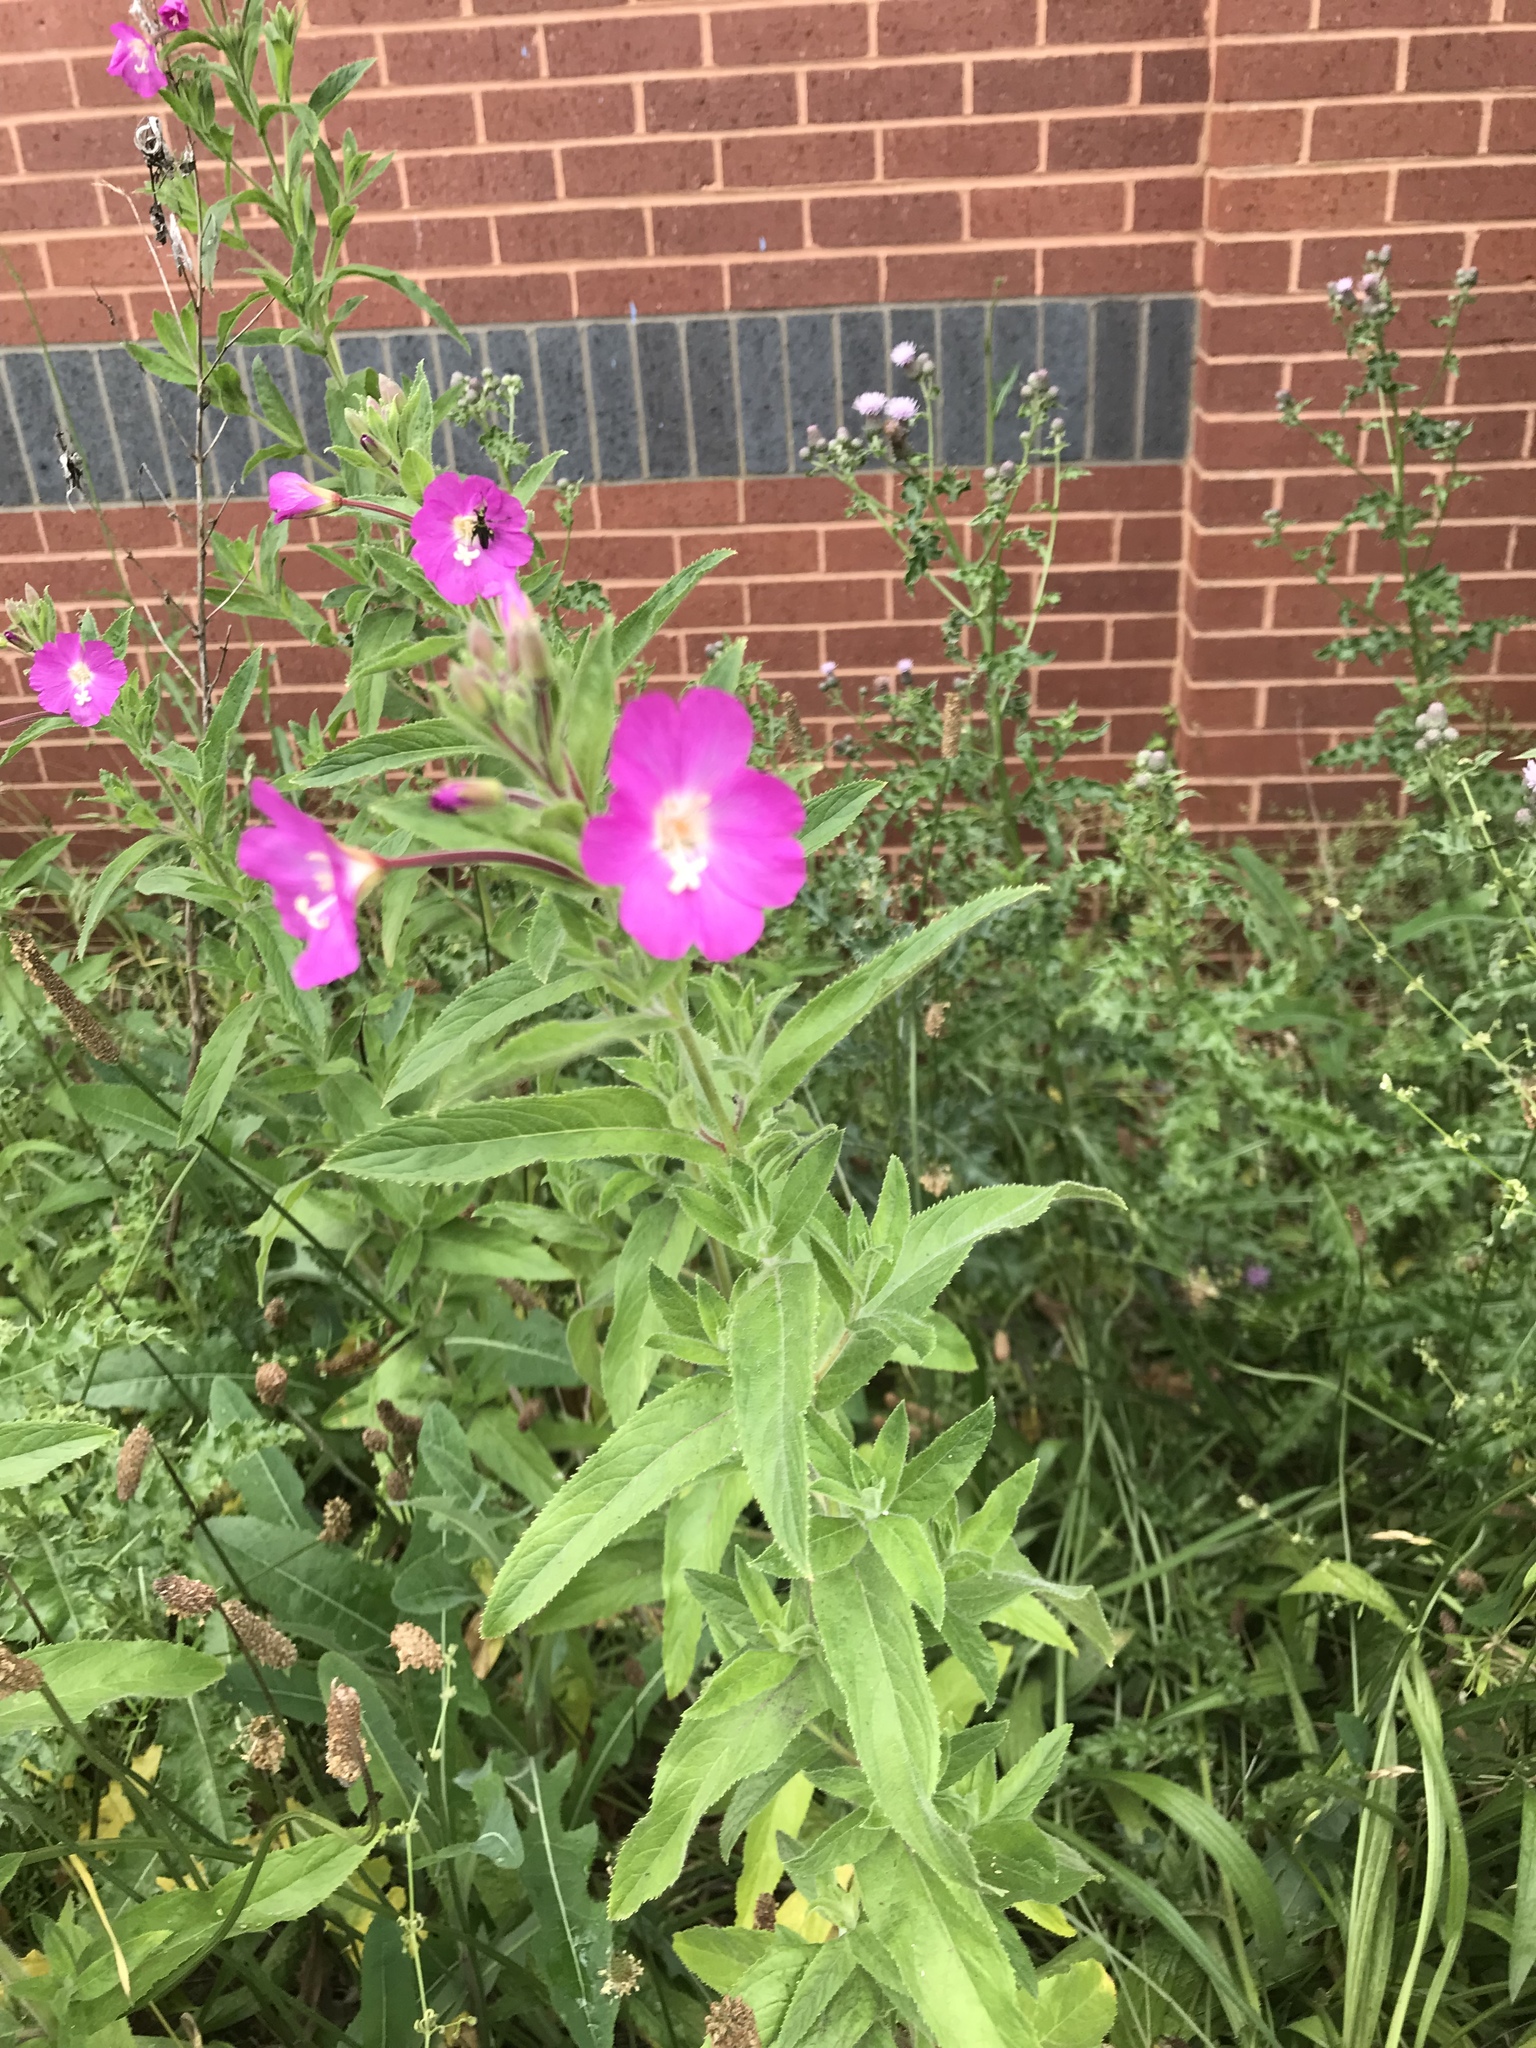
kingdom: Plantae
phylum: Tracheophyta
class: Magnoliopsida
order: Myrtales
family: Onagraceae
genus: Epilobium
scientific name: Epilobium hirsutum
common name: Great willowherb
